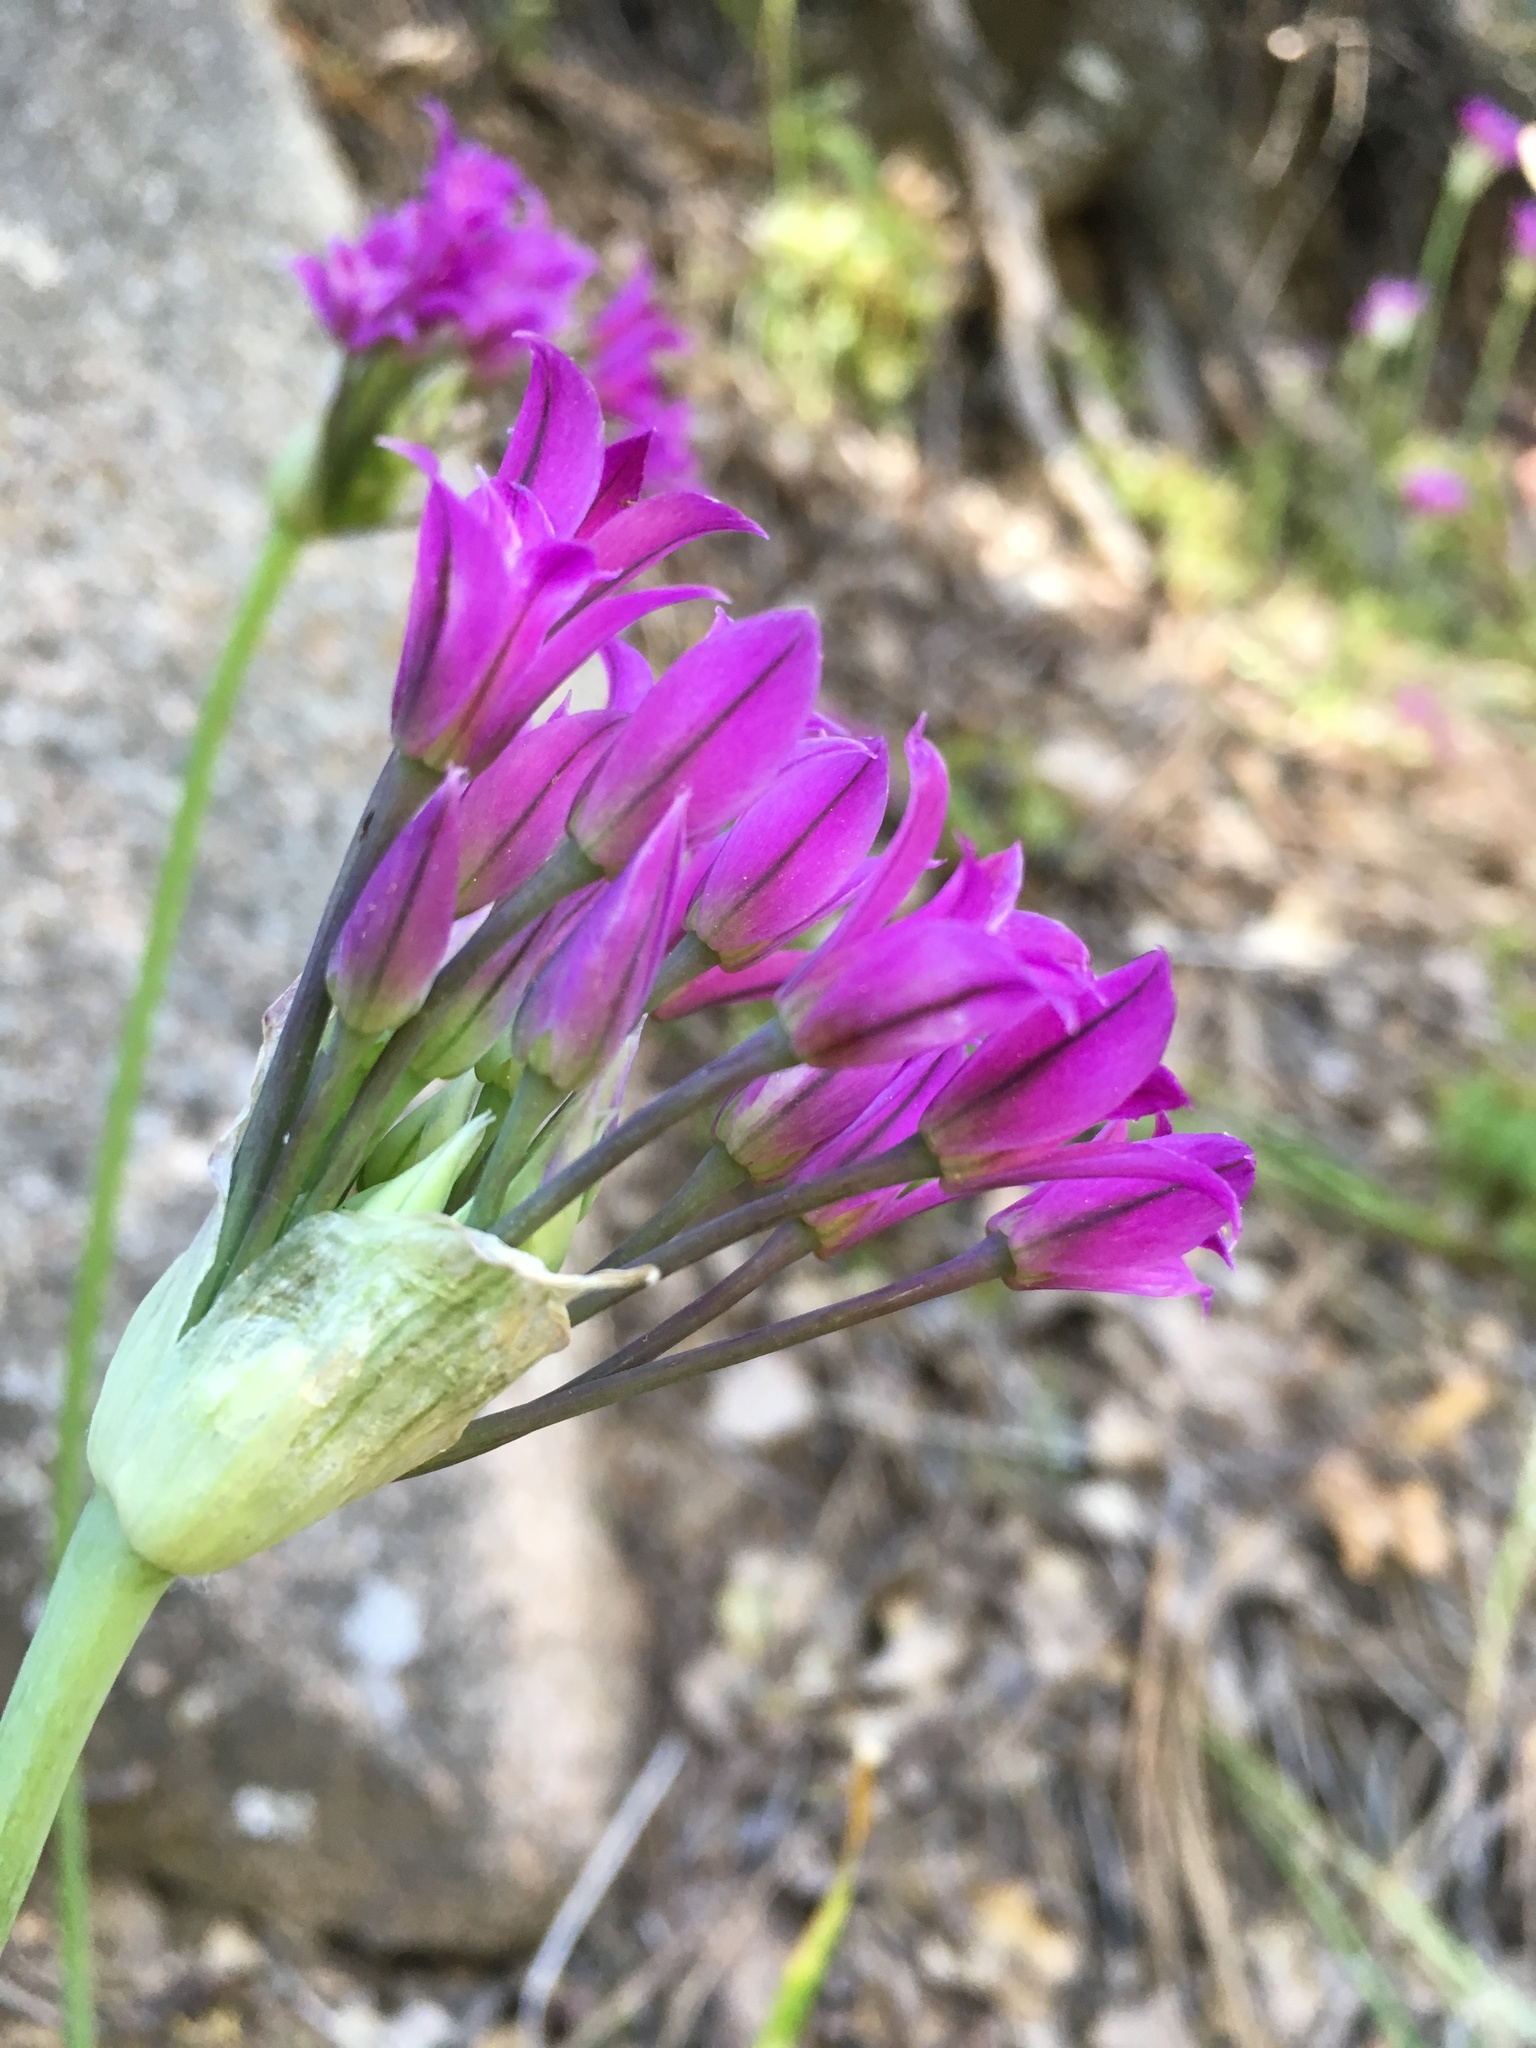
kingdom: Plantae
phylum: Tracheophyta
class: Liliopsida
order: Asparagales
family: Amaryllidaceae
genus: Allium
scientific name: Allium peninsulare
